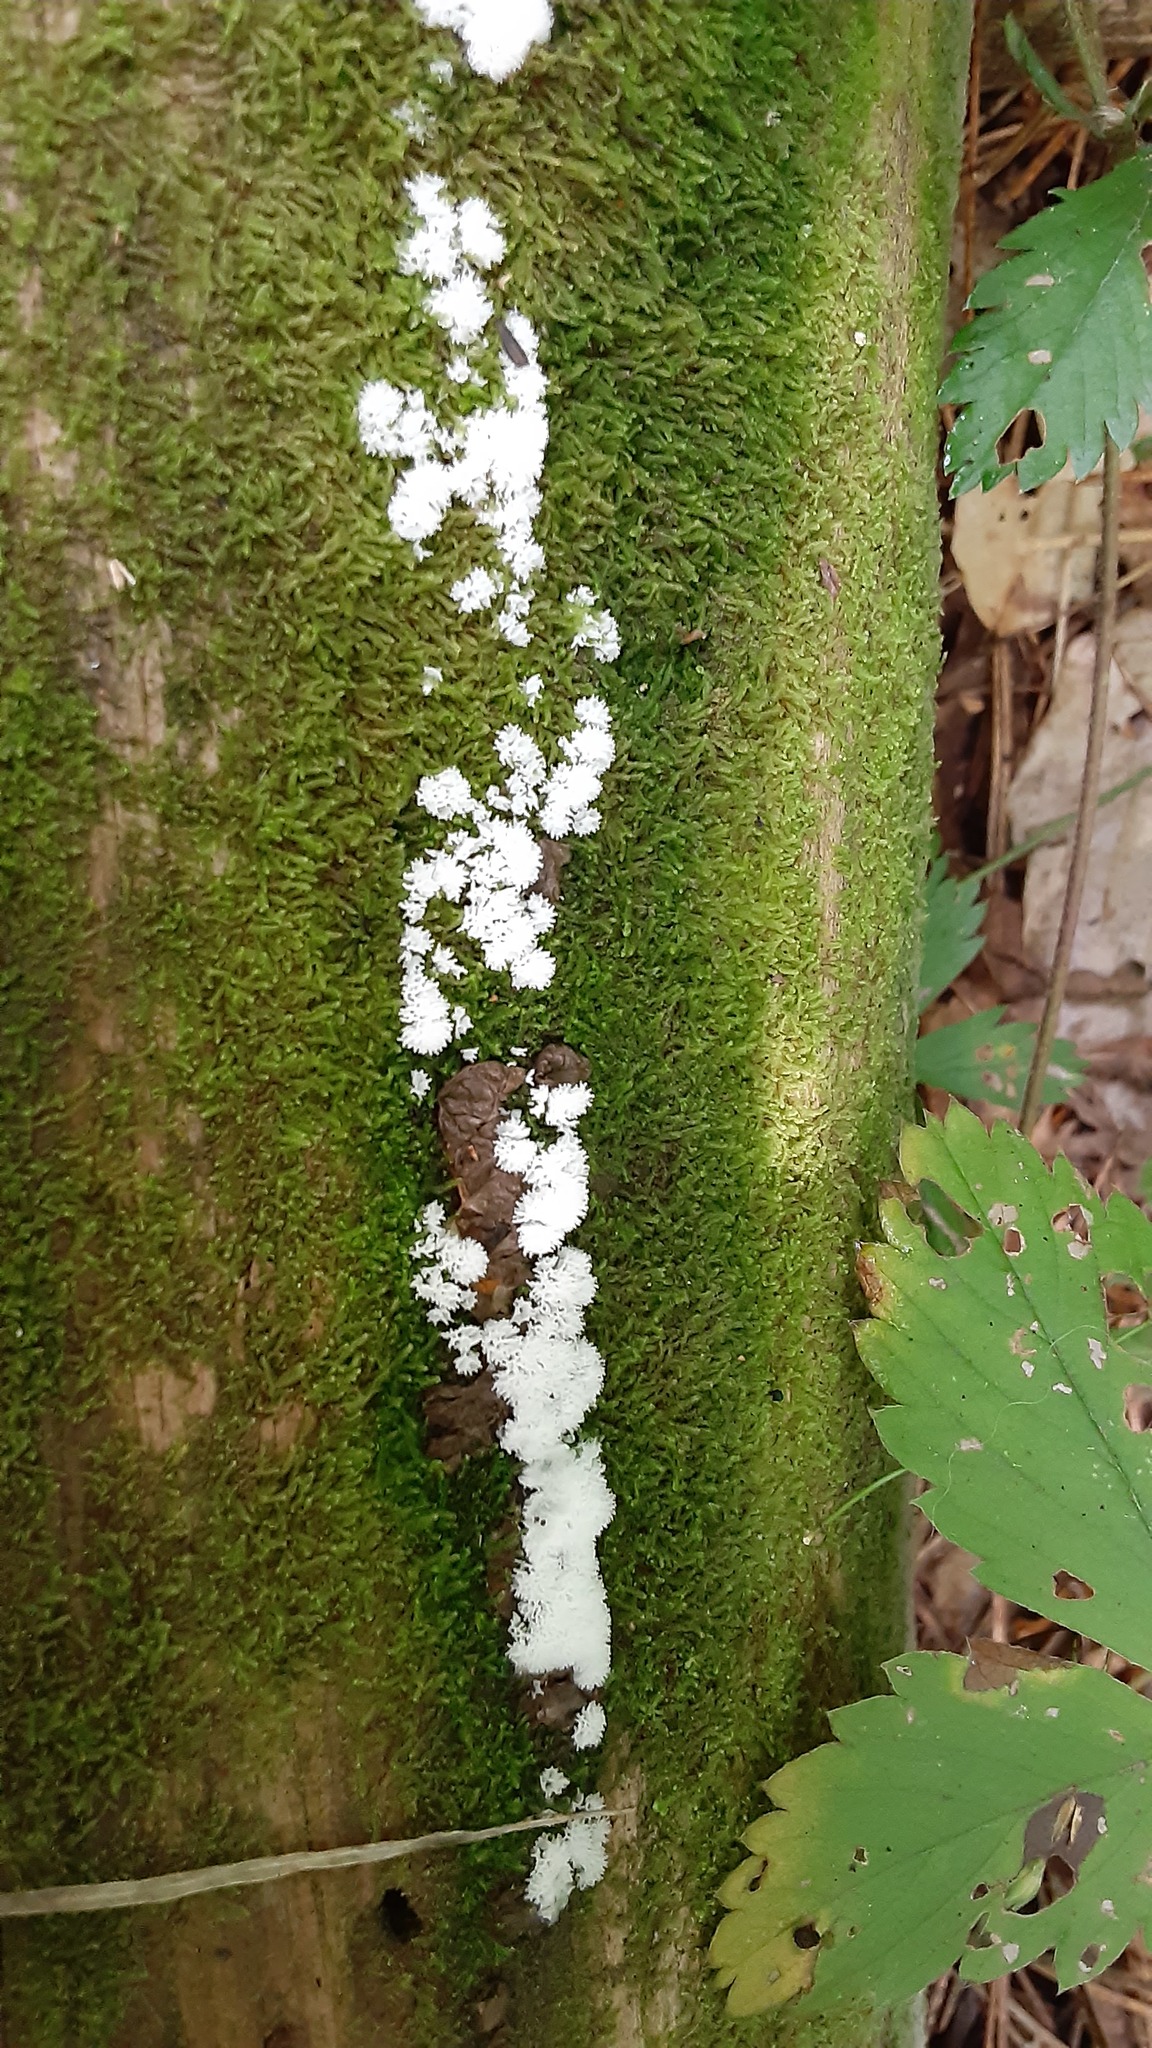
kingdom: Protozoa
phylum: Mycetozoa
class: Protosteliomycetes
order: Ceratiomyxales
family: Ceratiomyxaceae
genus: Ceratiomyxa
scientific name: Ceratiomyxa fruticulosa
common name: Honeycomb coral slime mold
